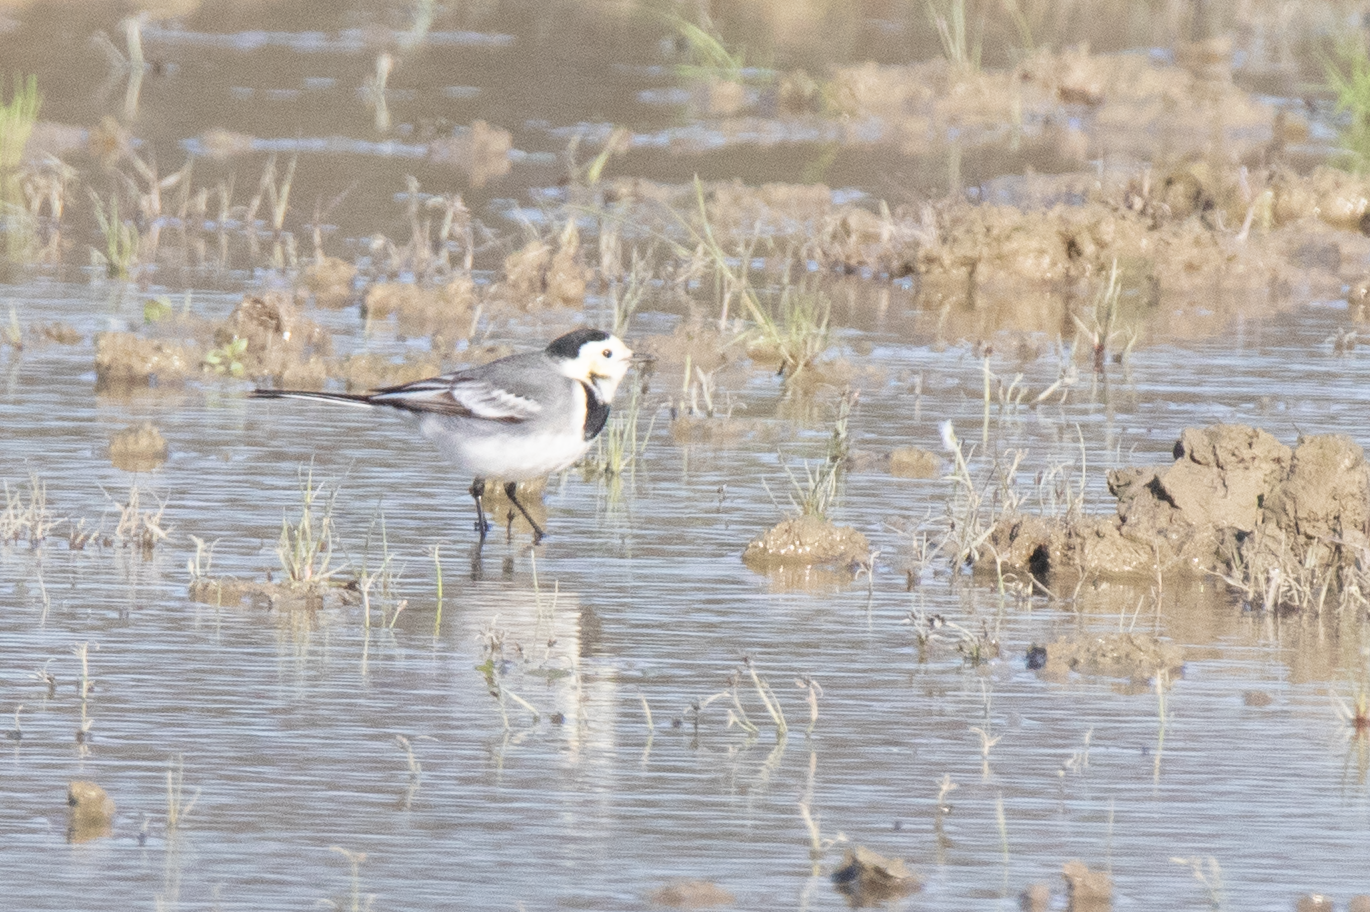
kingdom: Animalia
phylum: Chordata
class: Aves
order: Passeriformes
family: Motacillidae
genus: Motacilla
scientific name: Motacilla alba
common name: White wagtail
